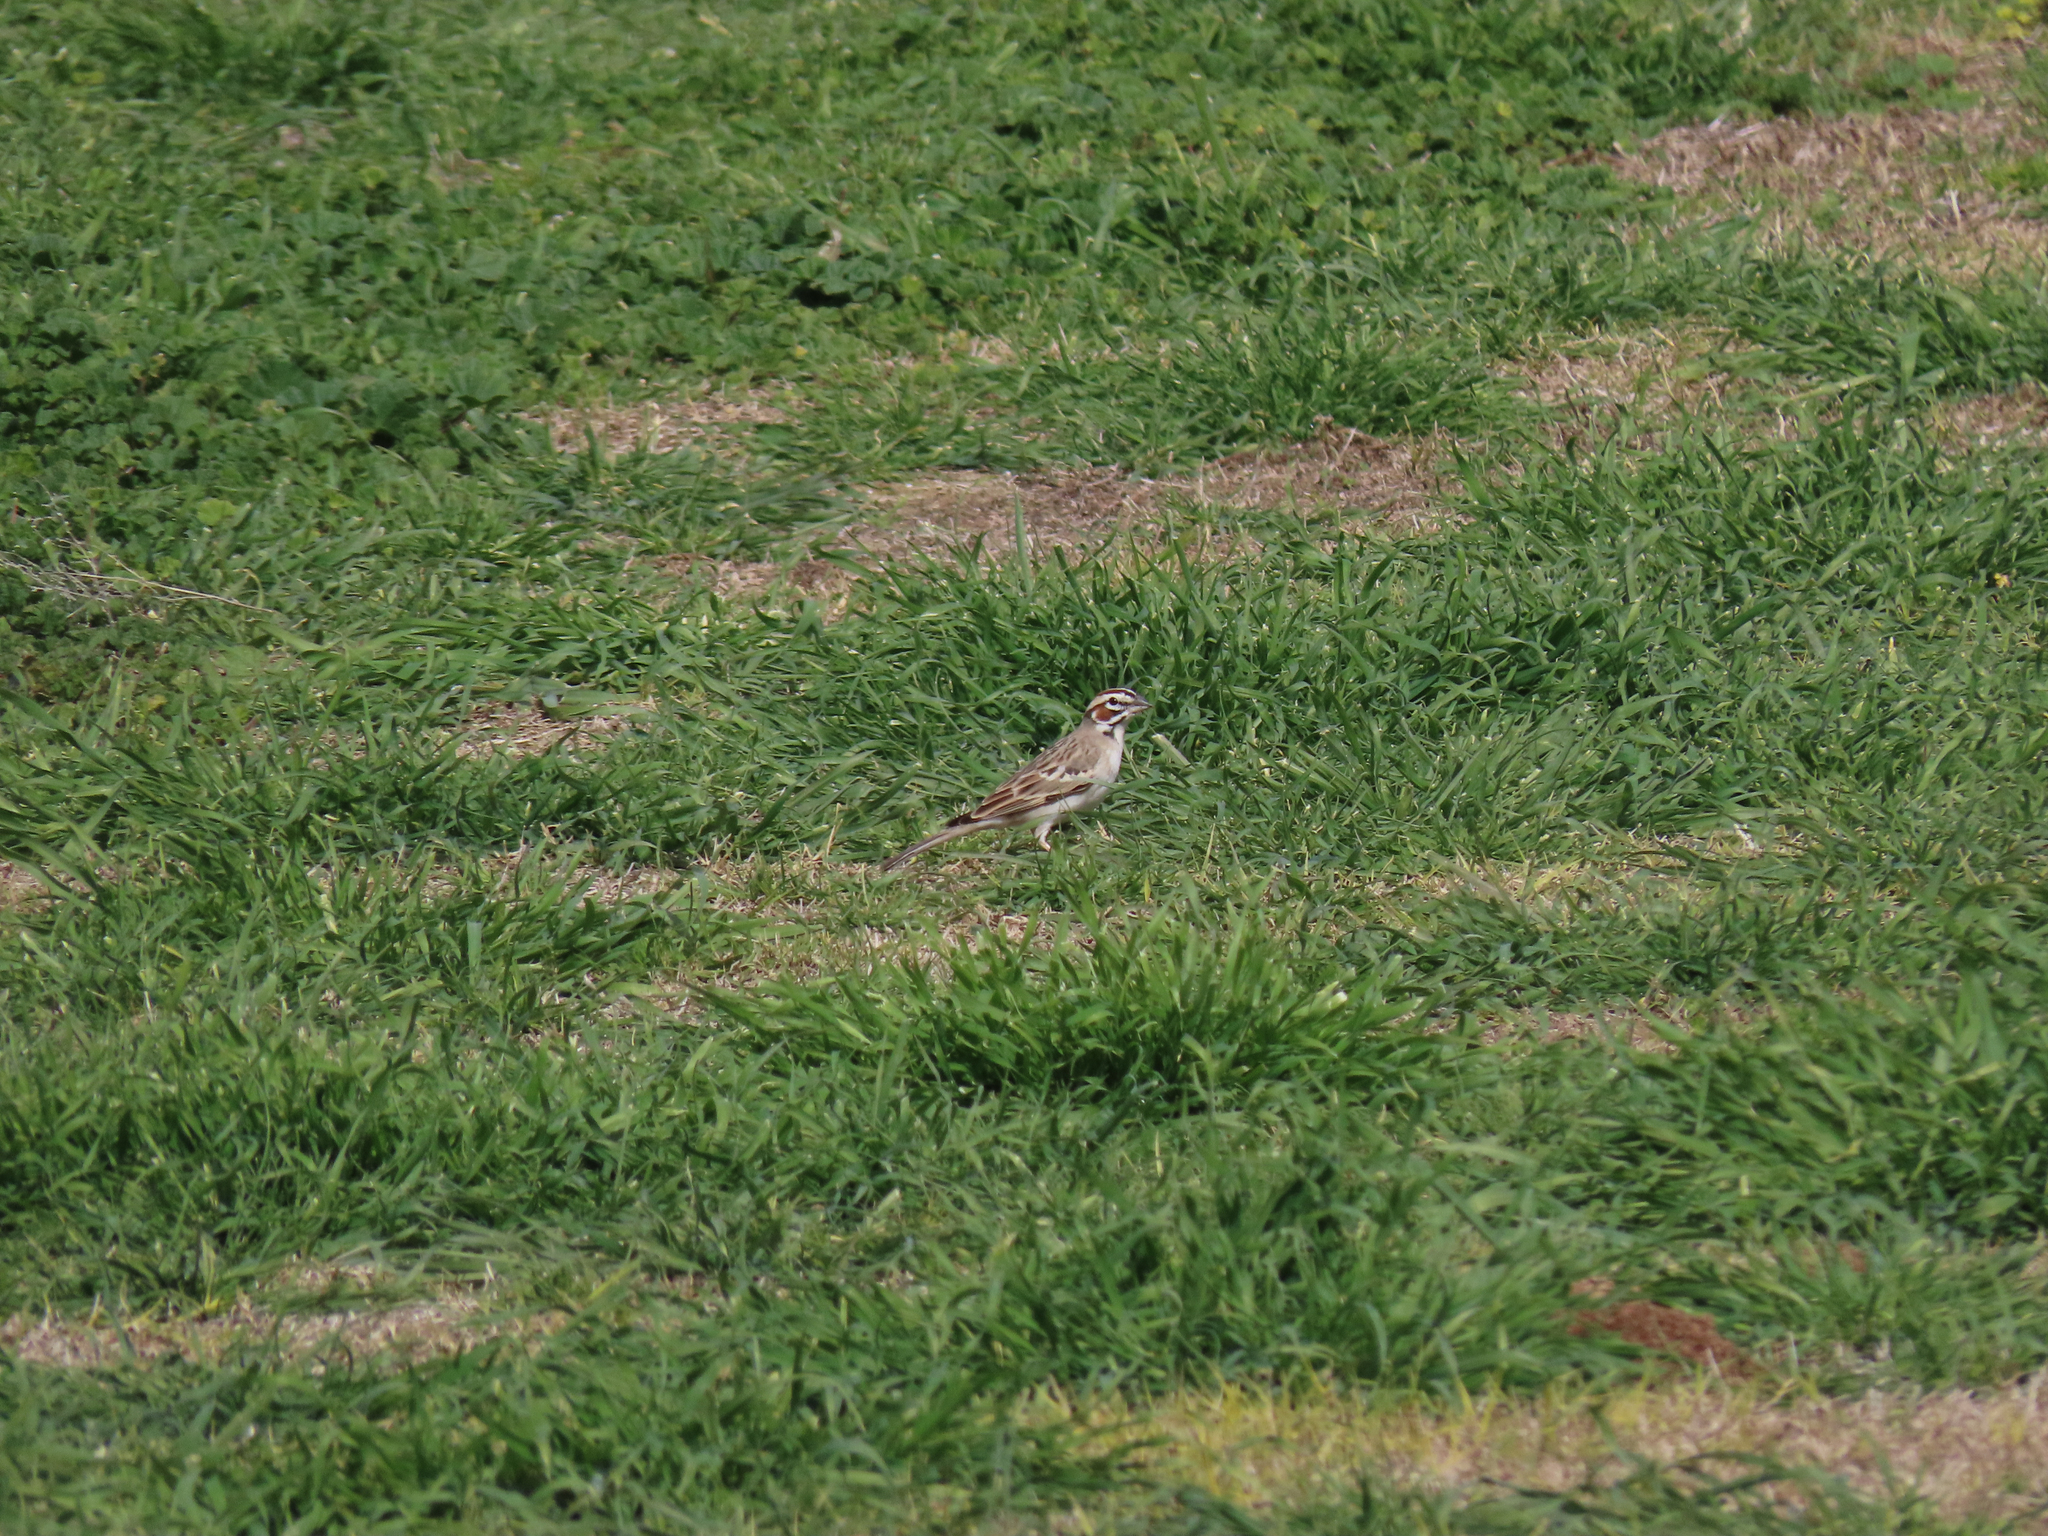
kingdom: Animalia
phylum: Chordata
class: Aves
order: Passeriformes
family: Passerellidae
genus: Chondestes
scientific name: Chondestes grammacus
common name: Lark sparrow
